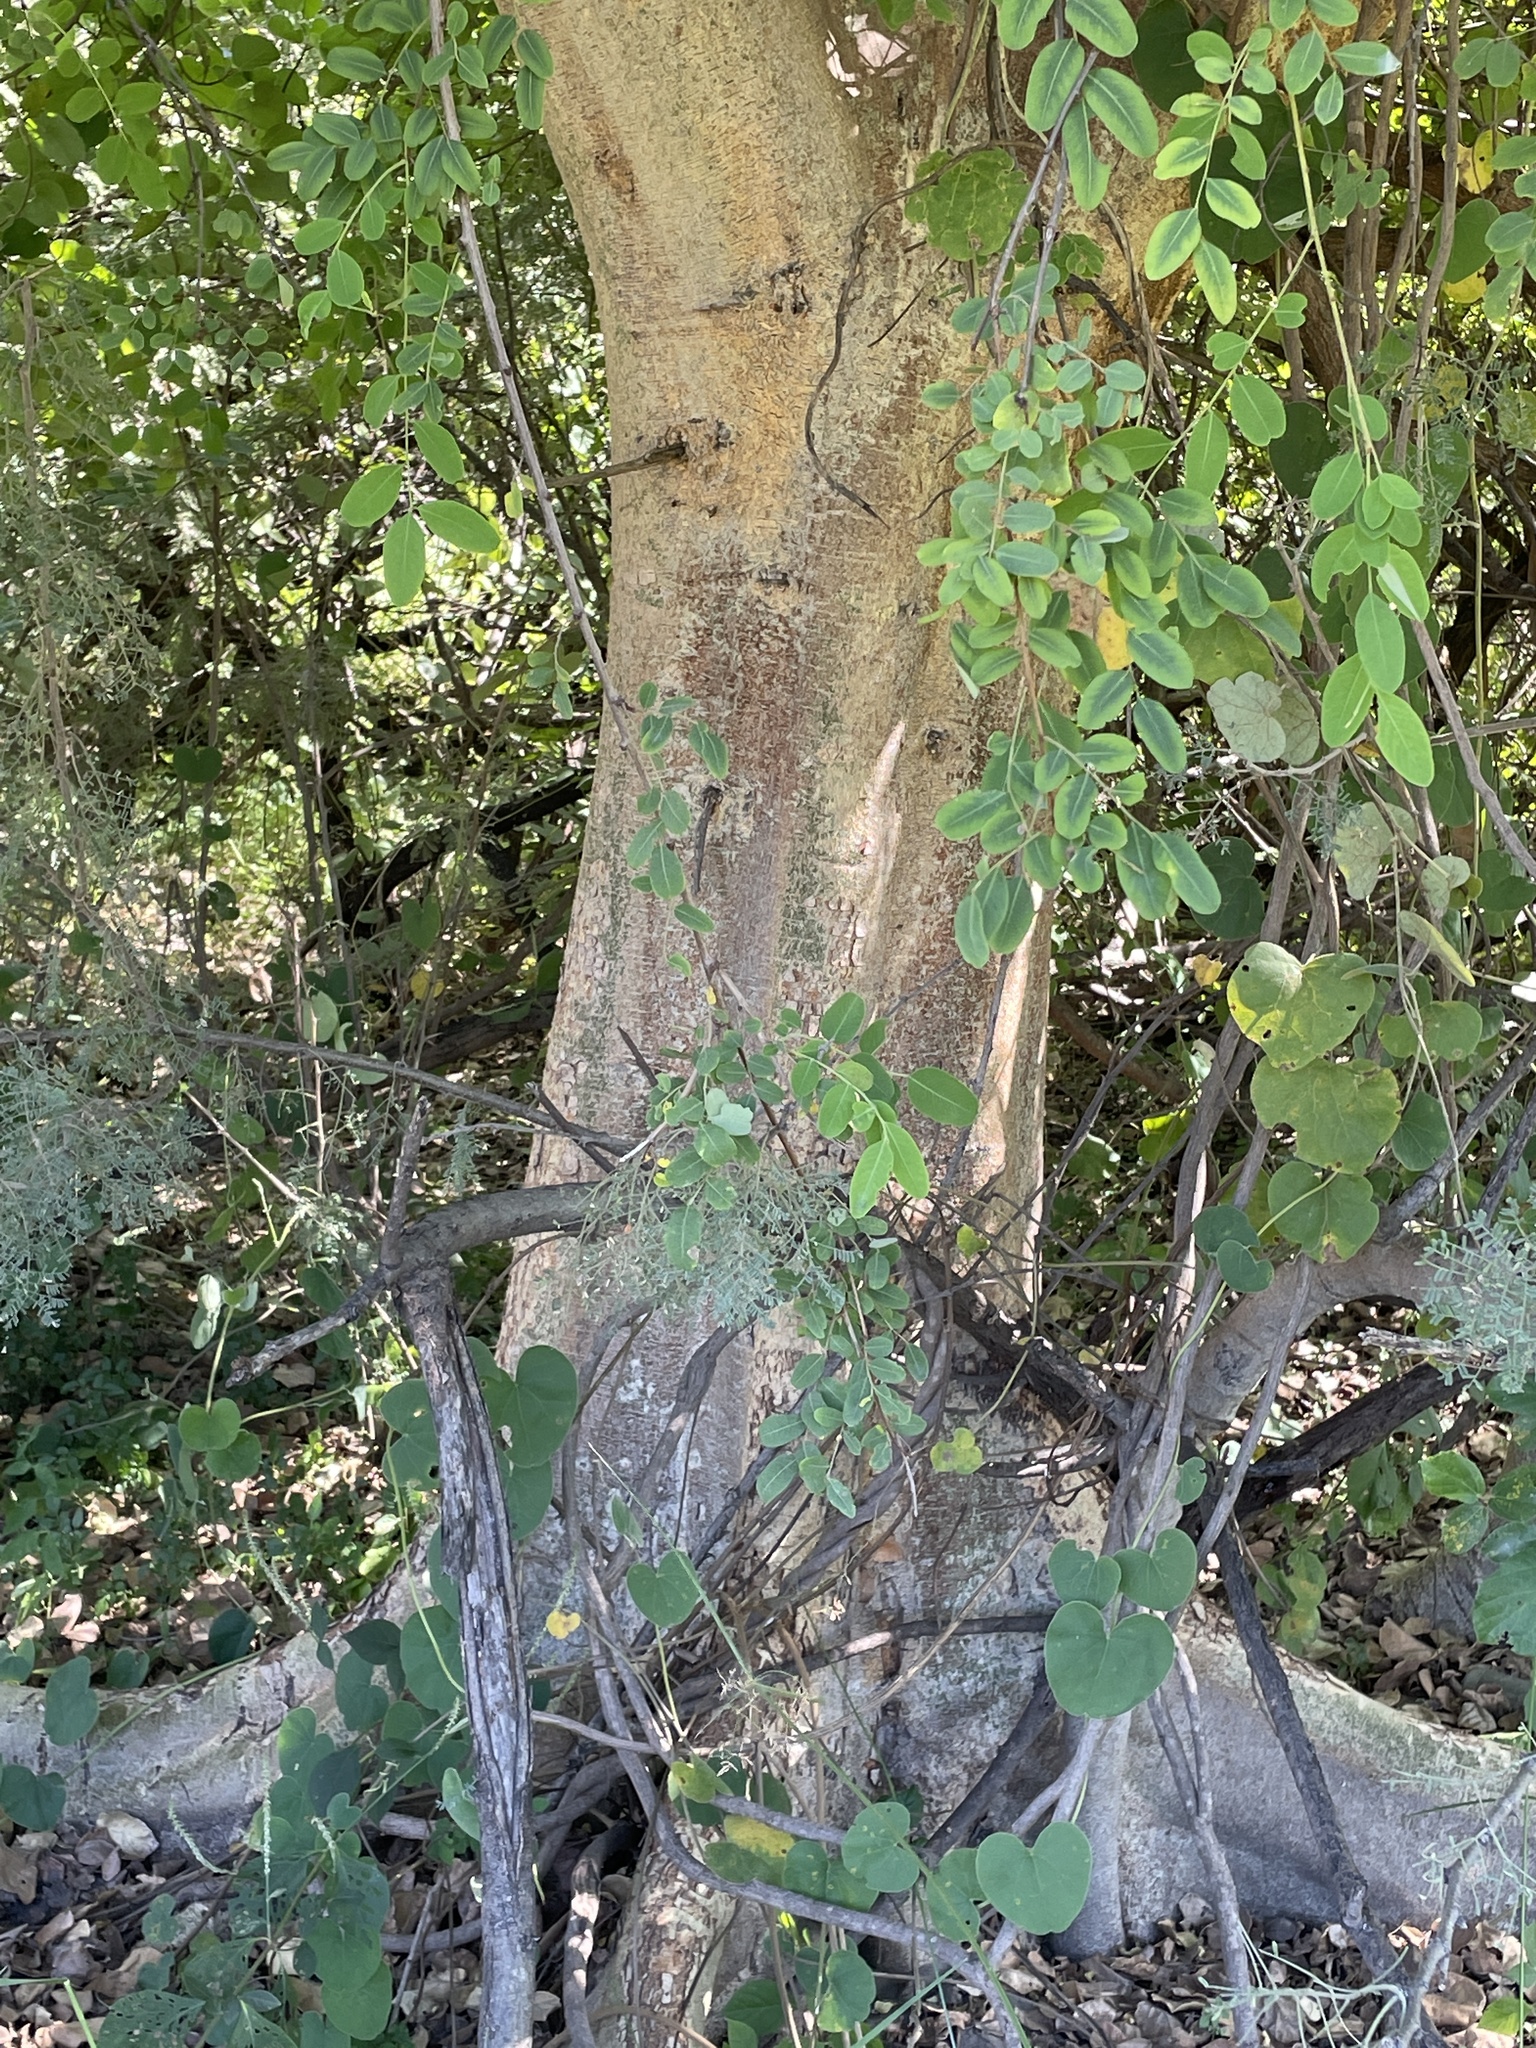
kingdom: Plantae
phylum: Tracheophyta
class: Magnoliopsida
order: Rosales
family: Moraceae
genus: Ficus
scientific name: Ficus sycomorus
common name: Sycomore
